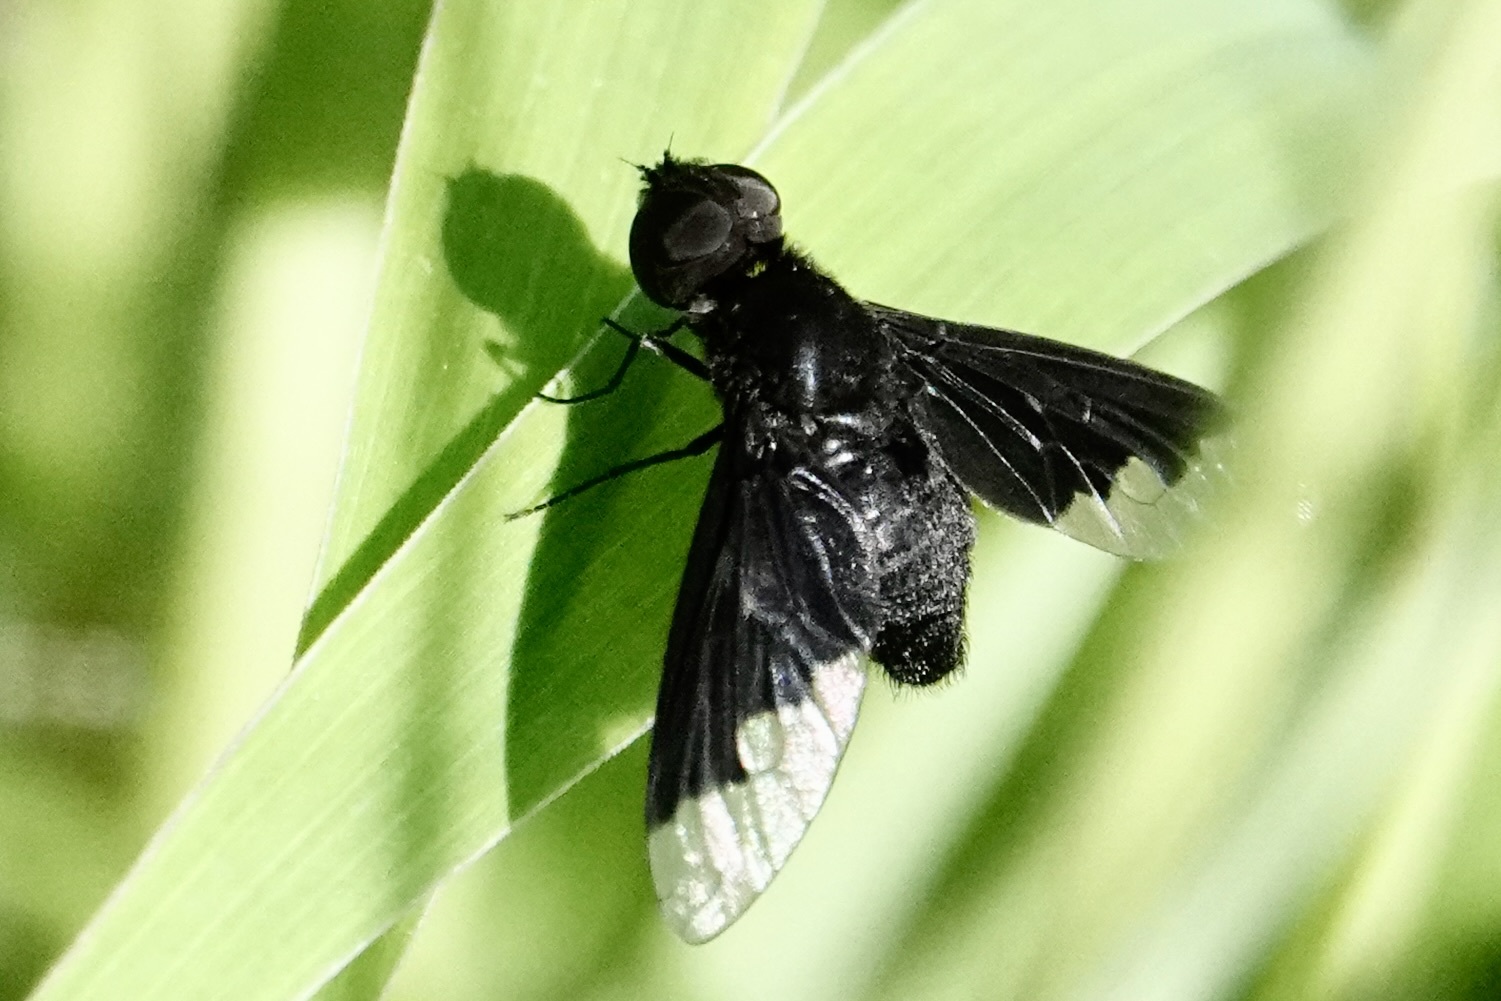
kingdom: Animalia
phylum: Arthropoda
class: Insecta
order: Diptera
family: Bombyliidae
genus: Anthrax
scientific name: Anthrax analis
